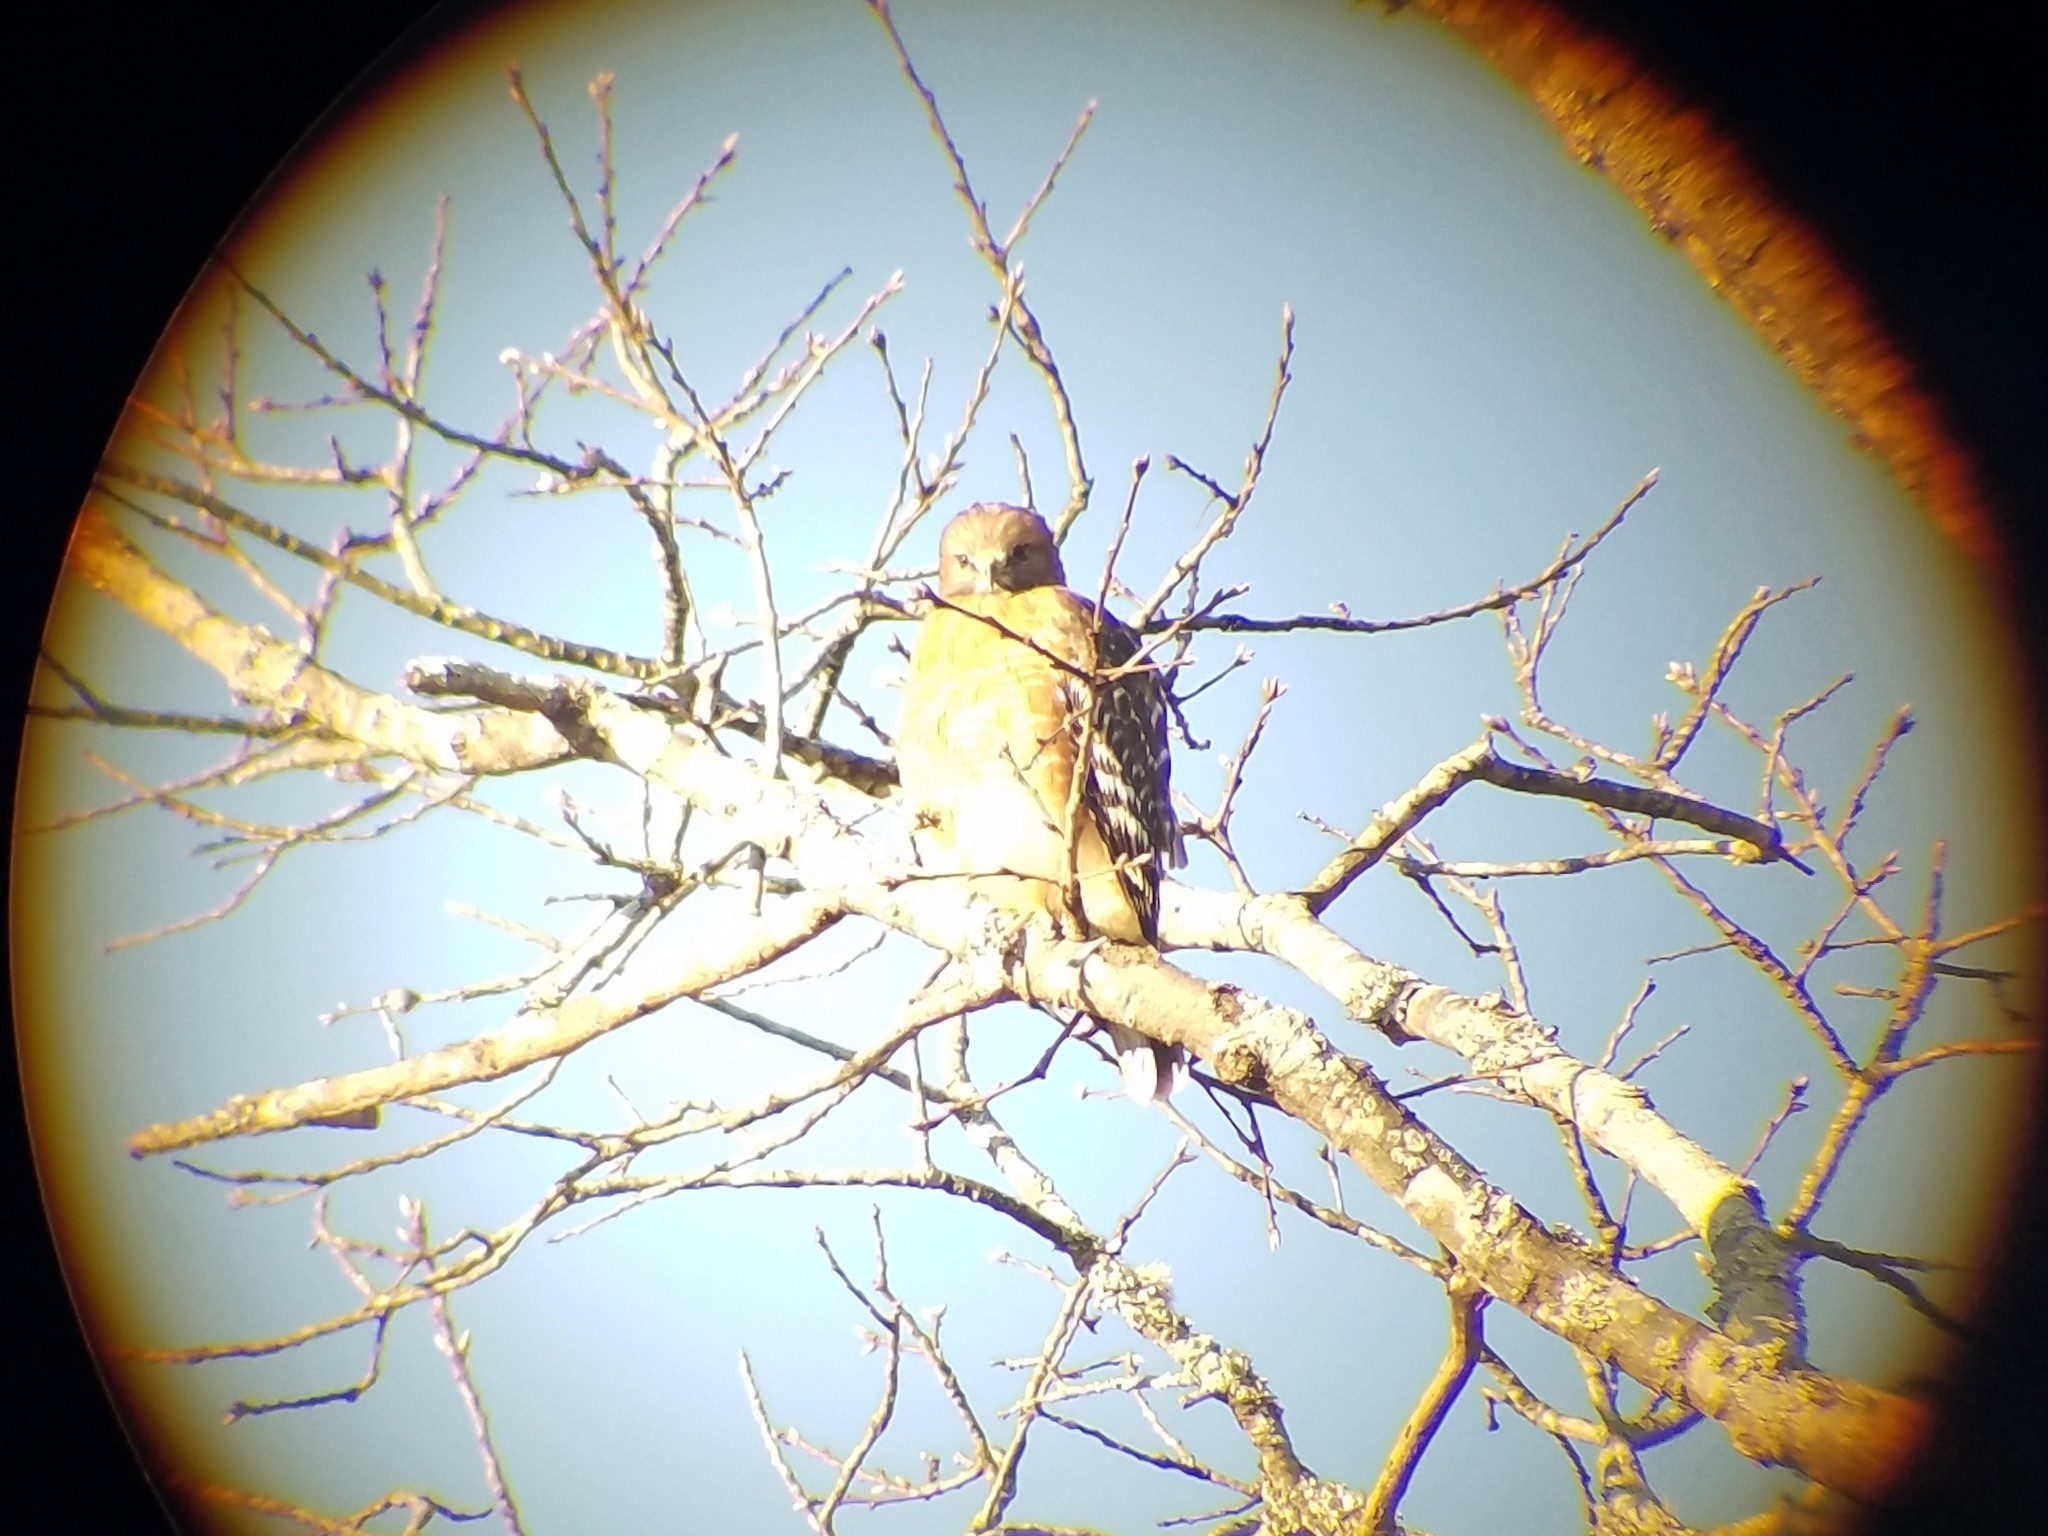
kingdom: Animalia
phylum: Chordata
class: Aves
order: Accipitriformes
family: Accipitridae
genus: Buteo
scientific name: Buteo lineatus
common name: Red-shouldered hawk
